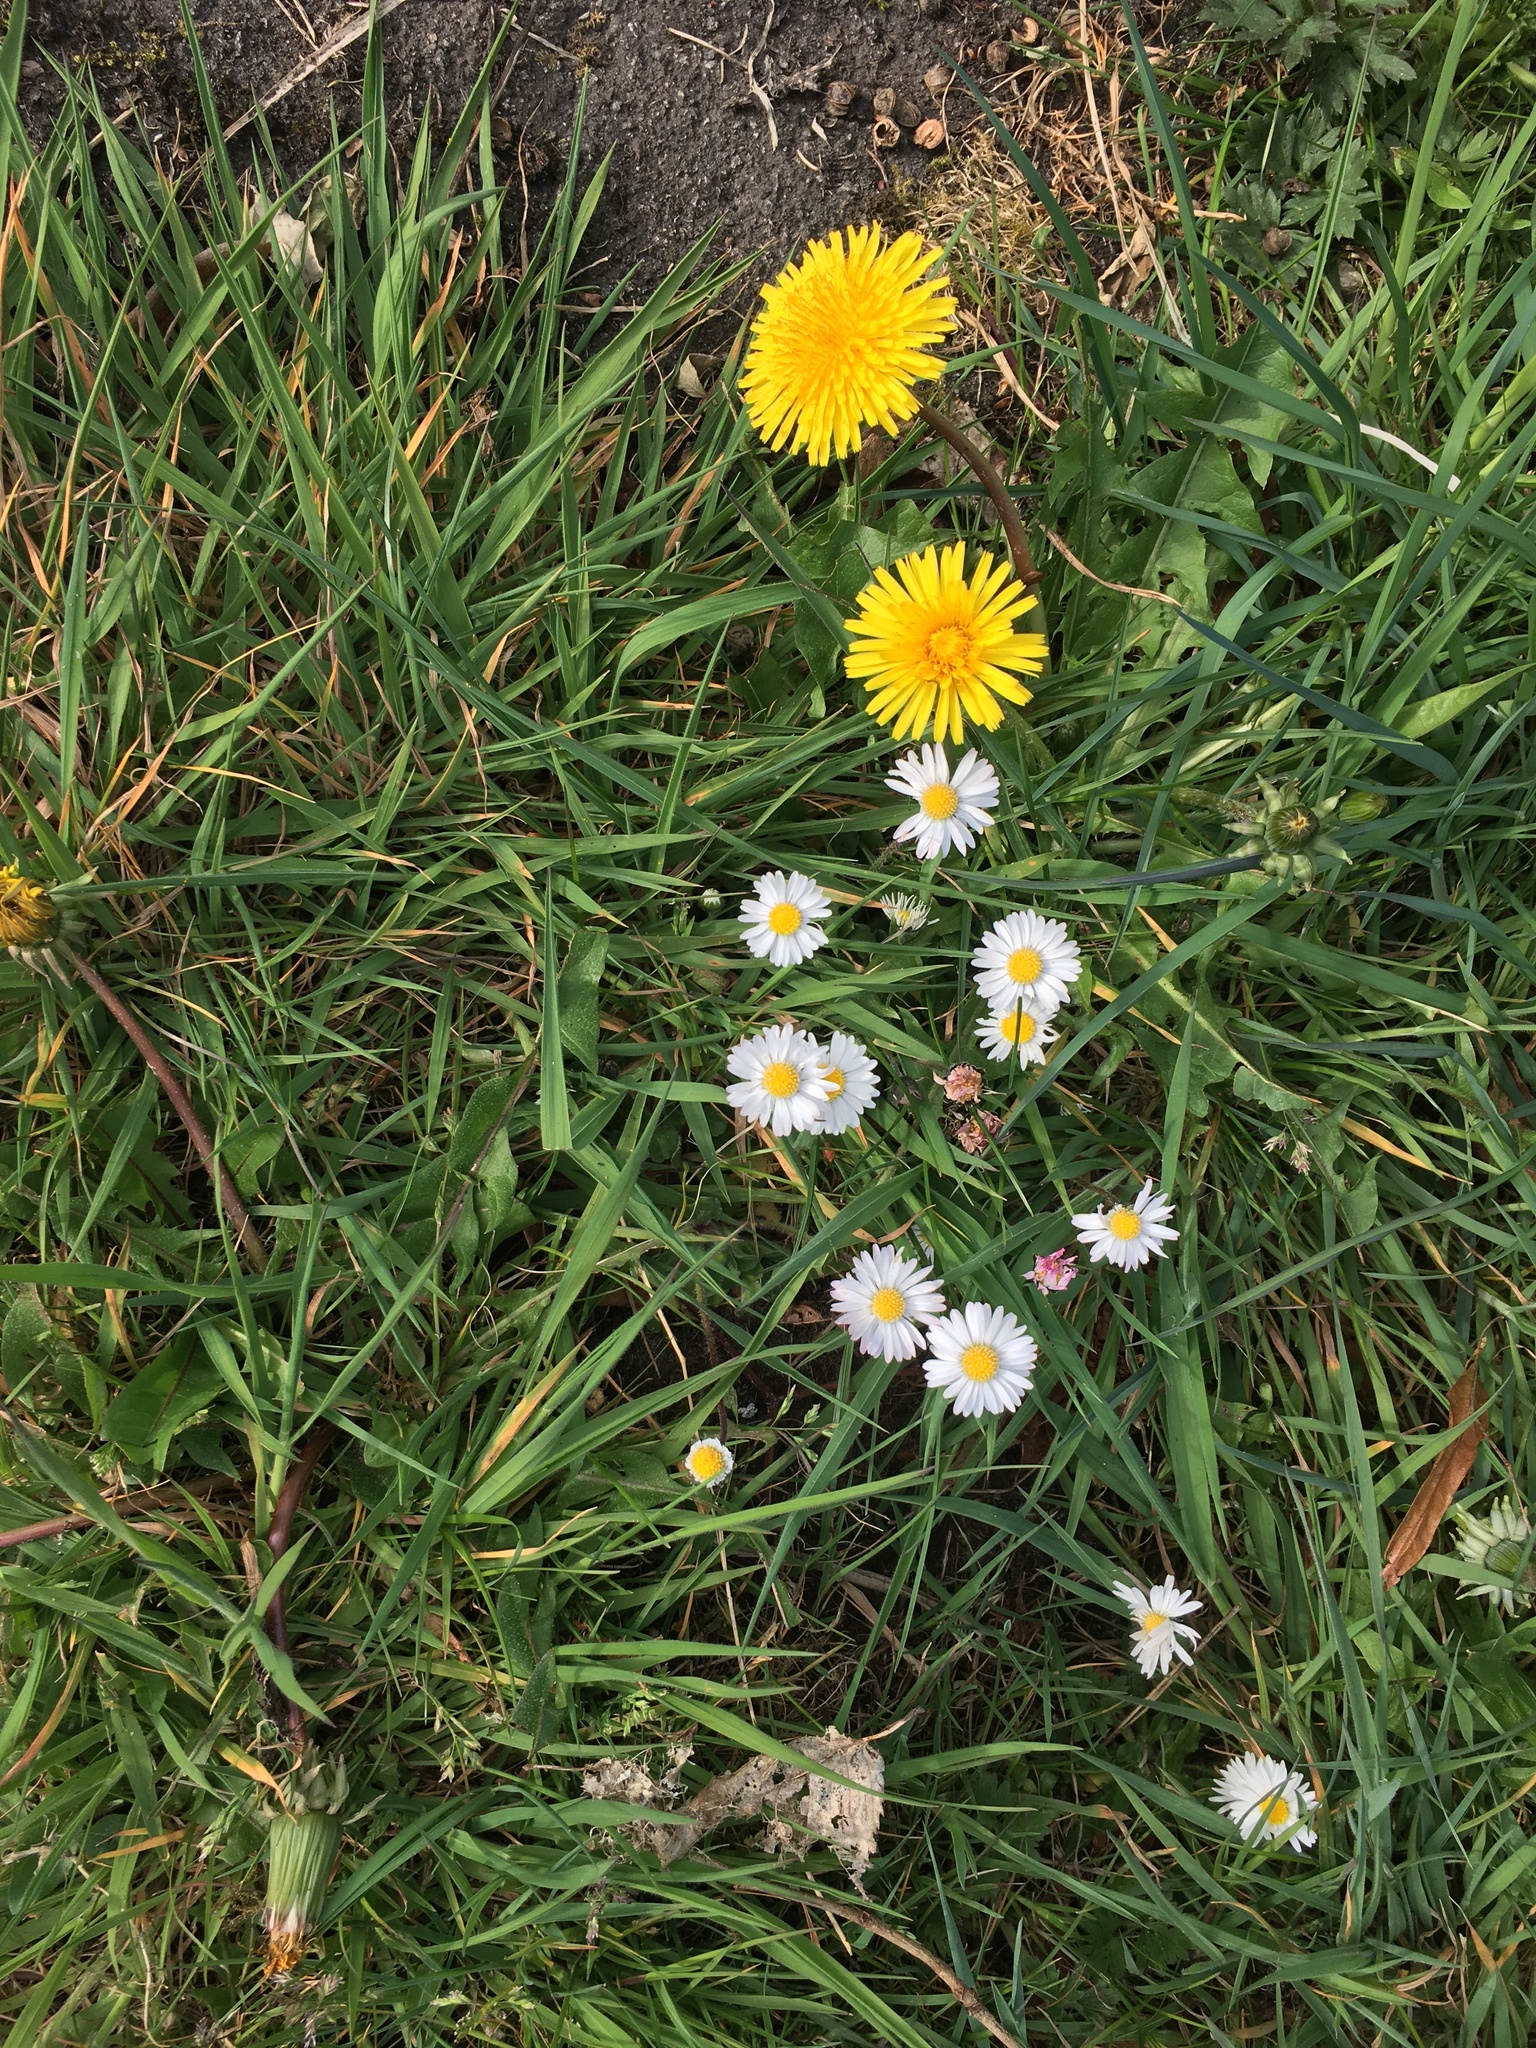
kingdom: Plantae
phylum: Tracheophyta
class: Magnoliopsida
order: Asterales
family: Asteraceae
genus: Bellis
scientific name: Bellis perennis
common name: Lawndaisy
